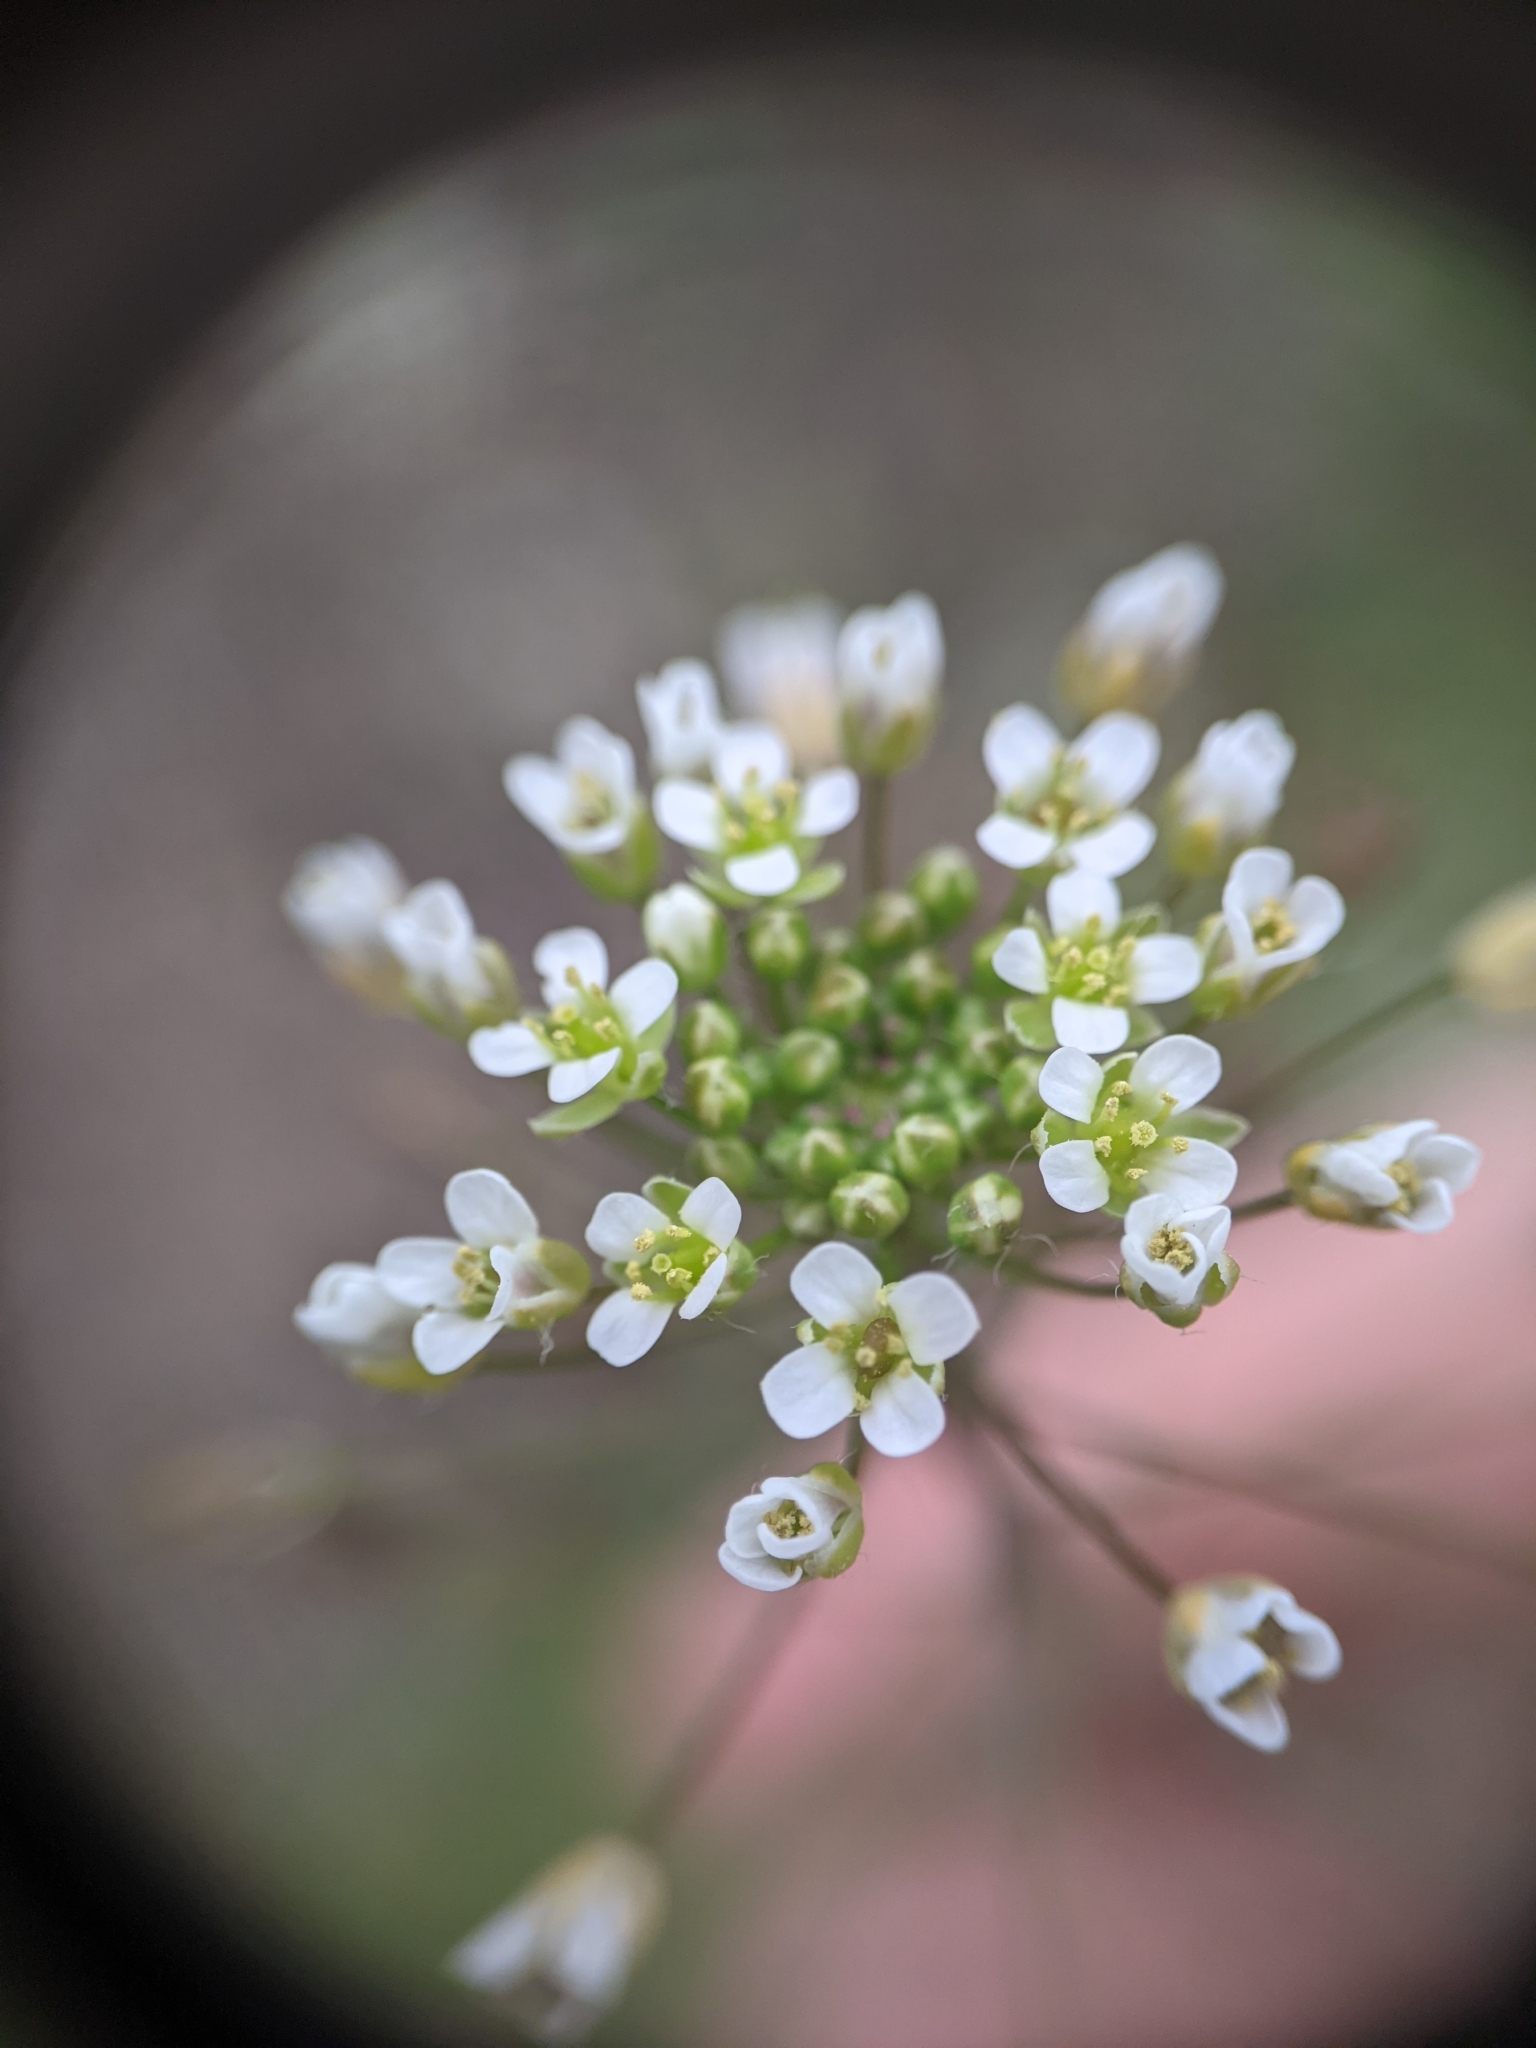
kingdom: Plantae
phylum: Tracheophyta
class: Magnoliopsida
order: Brassicales
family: Brassicaceae
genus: Capsella
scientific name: Capsella bursa-pastoris
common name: Shepherd's purse
